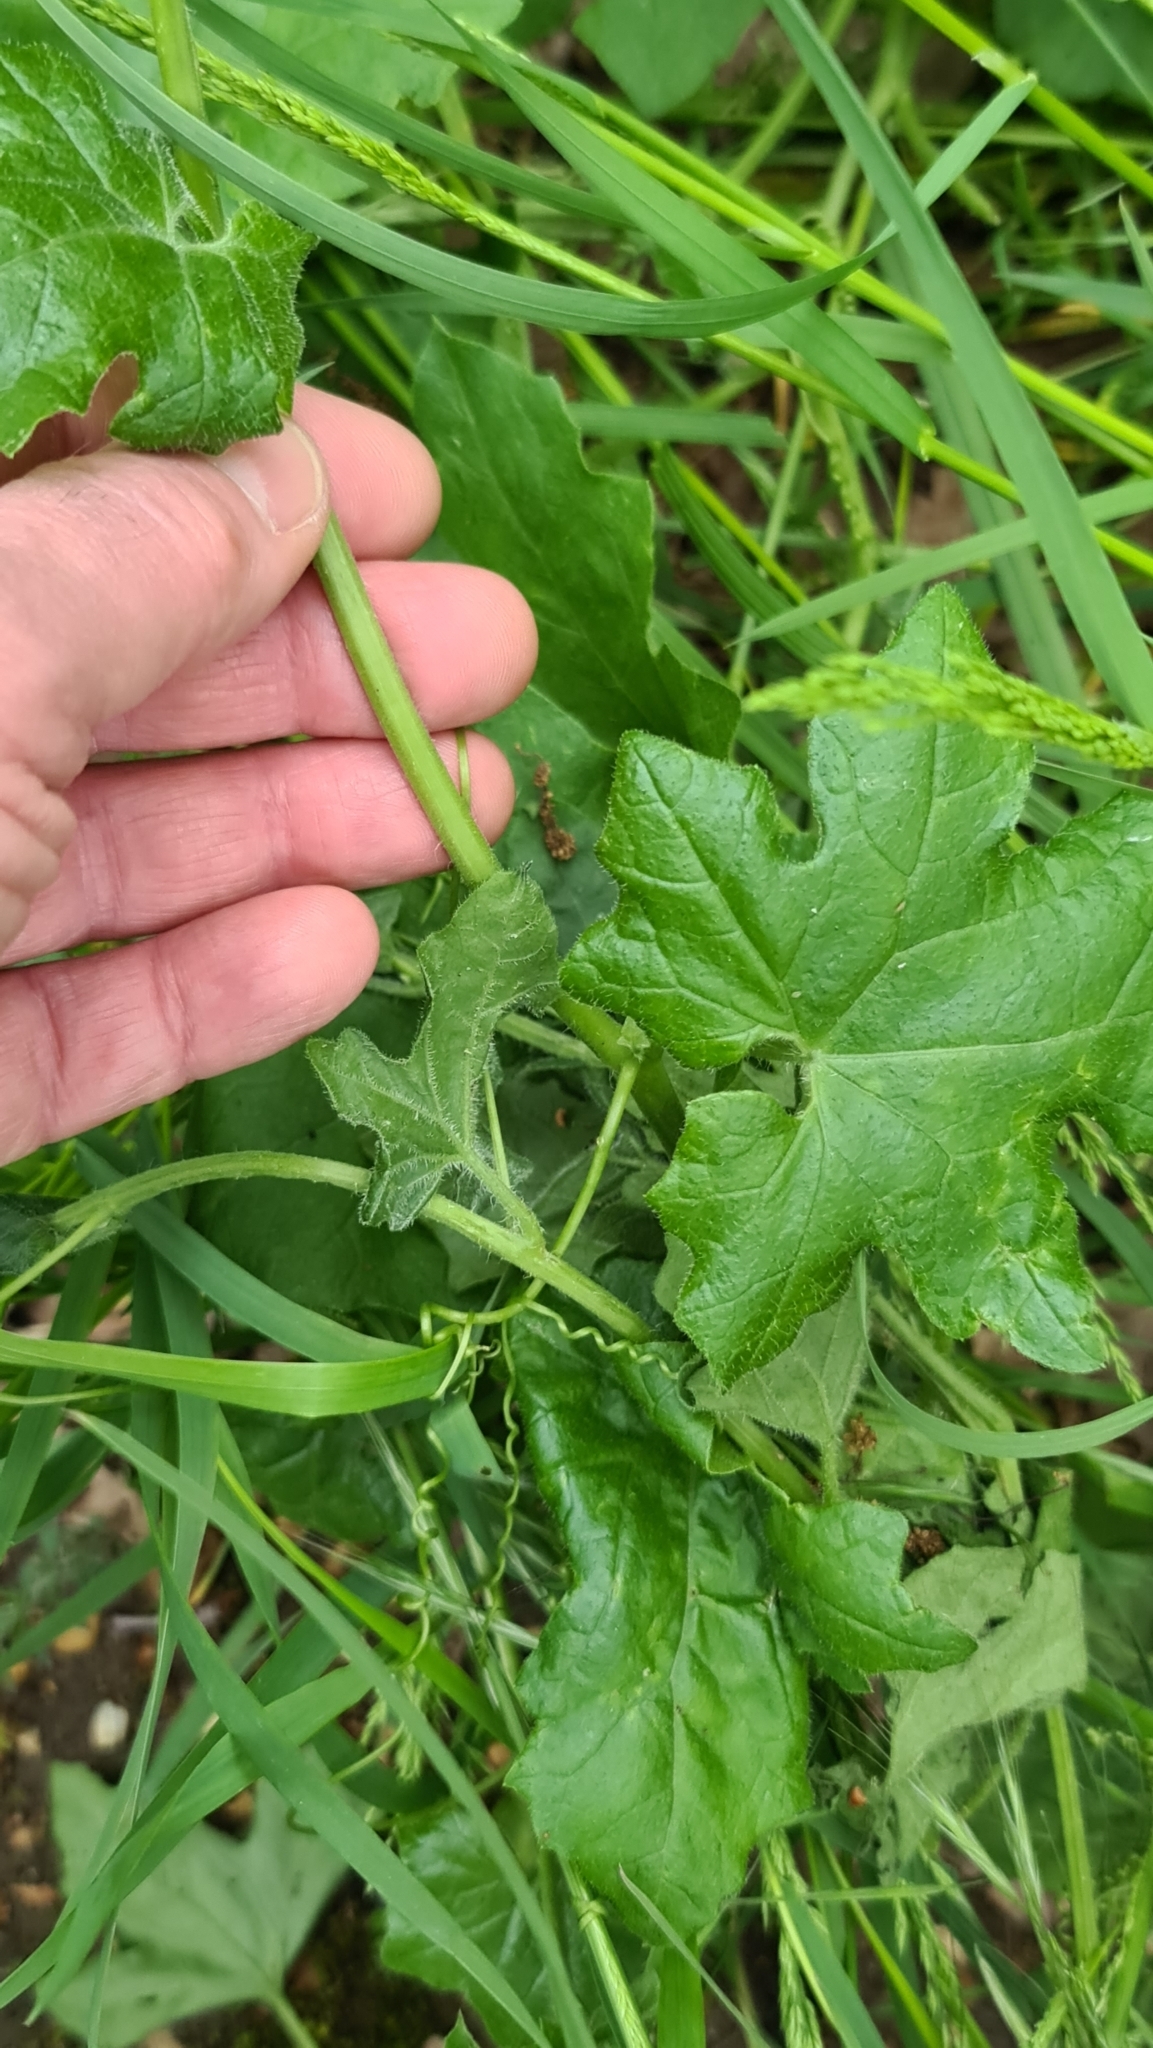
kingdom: Plantae
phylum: Tracheophyta
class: Magnoliopsida
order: Cucurbitales
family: Cucurbitaceae
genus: Bryonia
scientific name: Bryonia cretica
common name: Cretan bryony
